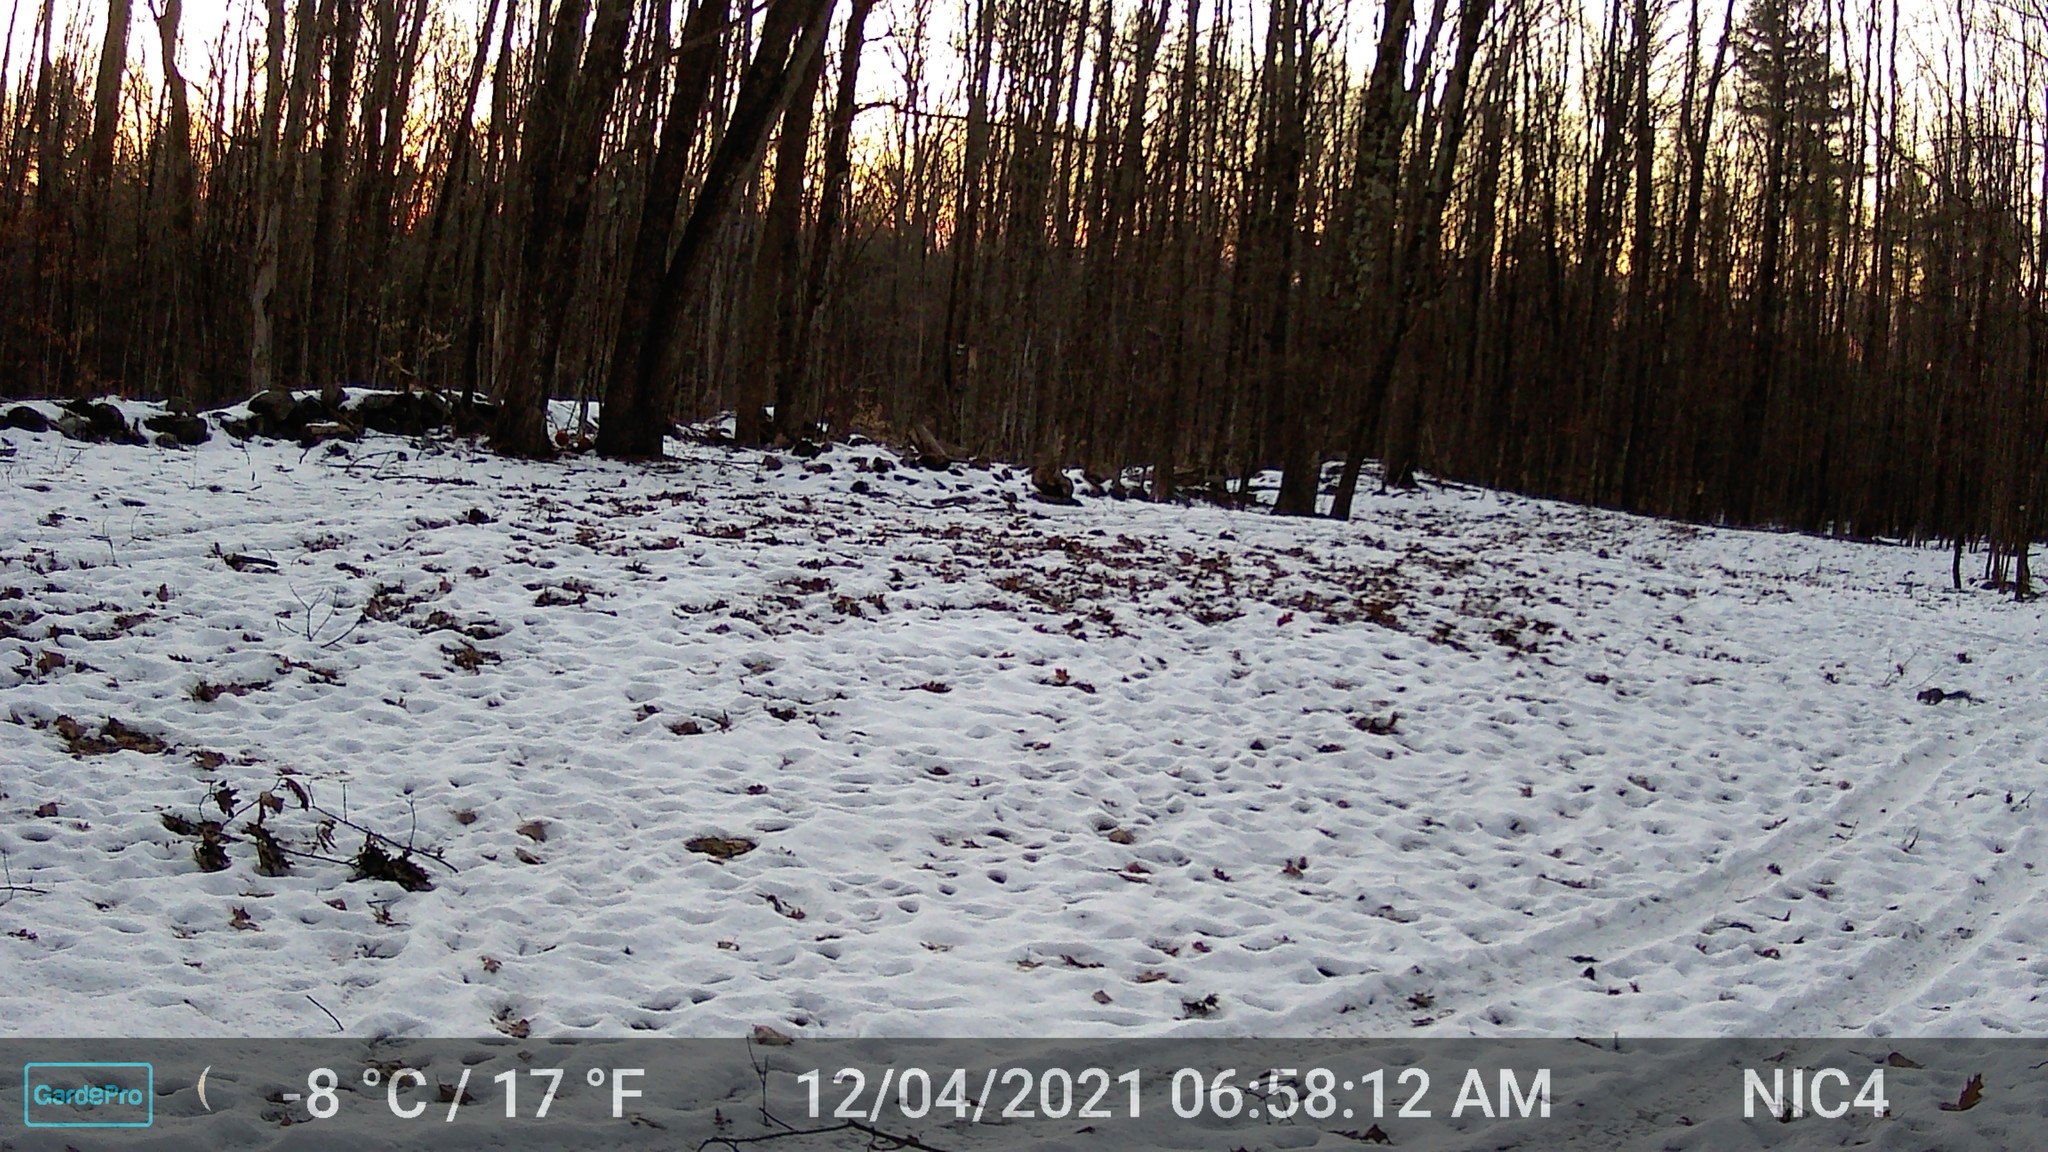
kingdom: Animalia
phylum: Chordata
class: Mammalia
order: Rodentia
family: Sciuridae
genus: Sciurus
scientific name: Sciurus carolinensis
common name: Eastern gray squirrel
